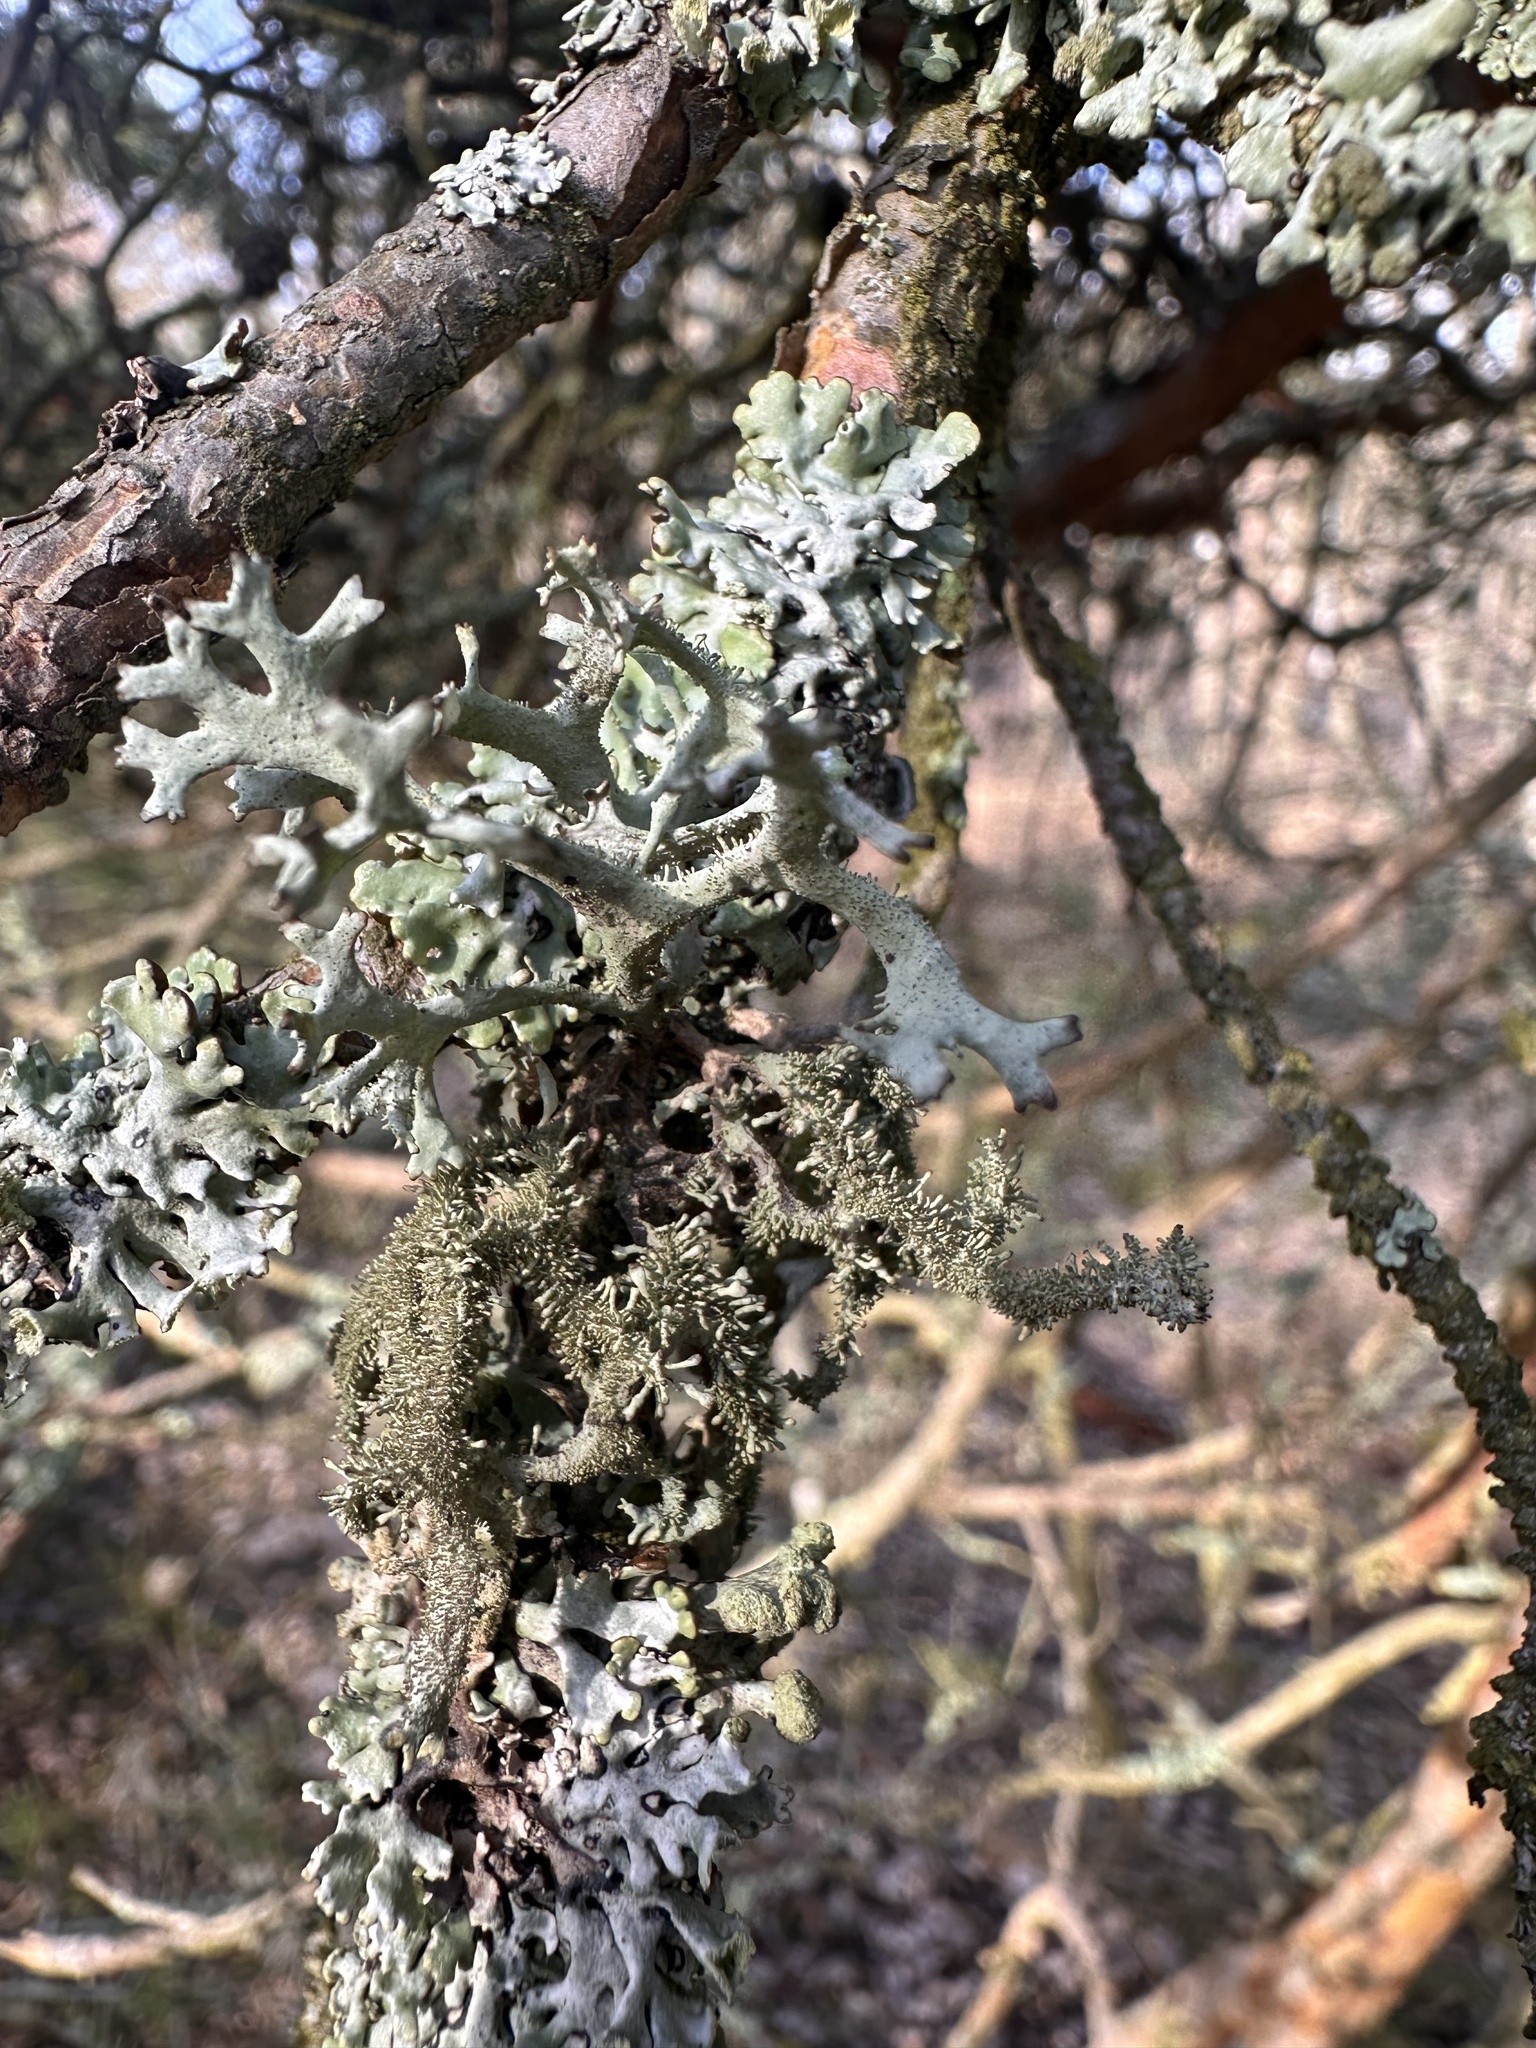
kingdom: Fungi
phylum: Ascomycota
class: Lecanoromycetes
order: Lecanorales
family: Parmeliaceae
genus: Pseudevernia
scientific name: Pseudevernia furfuracea
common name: Tree moss
